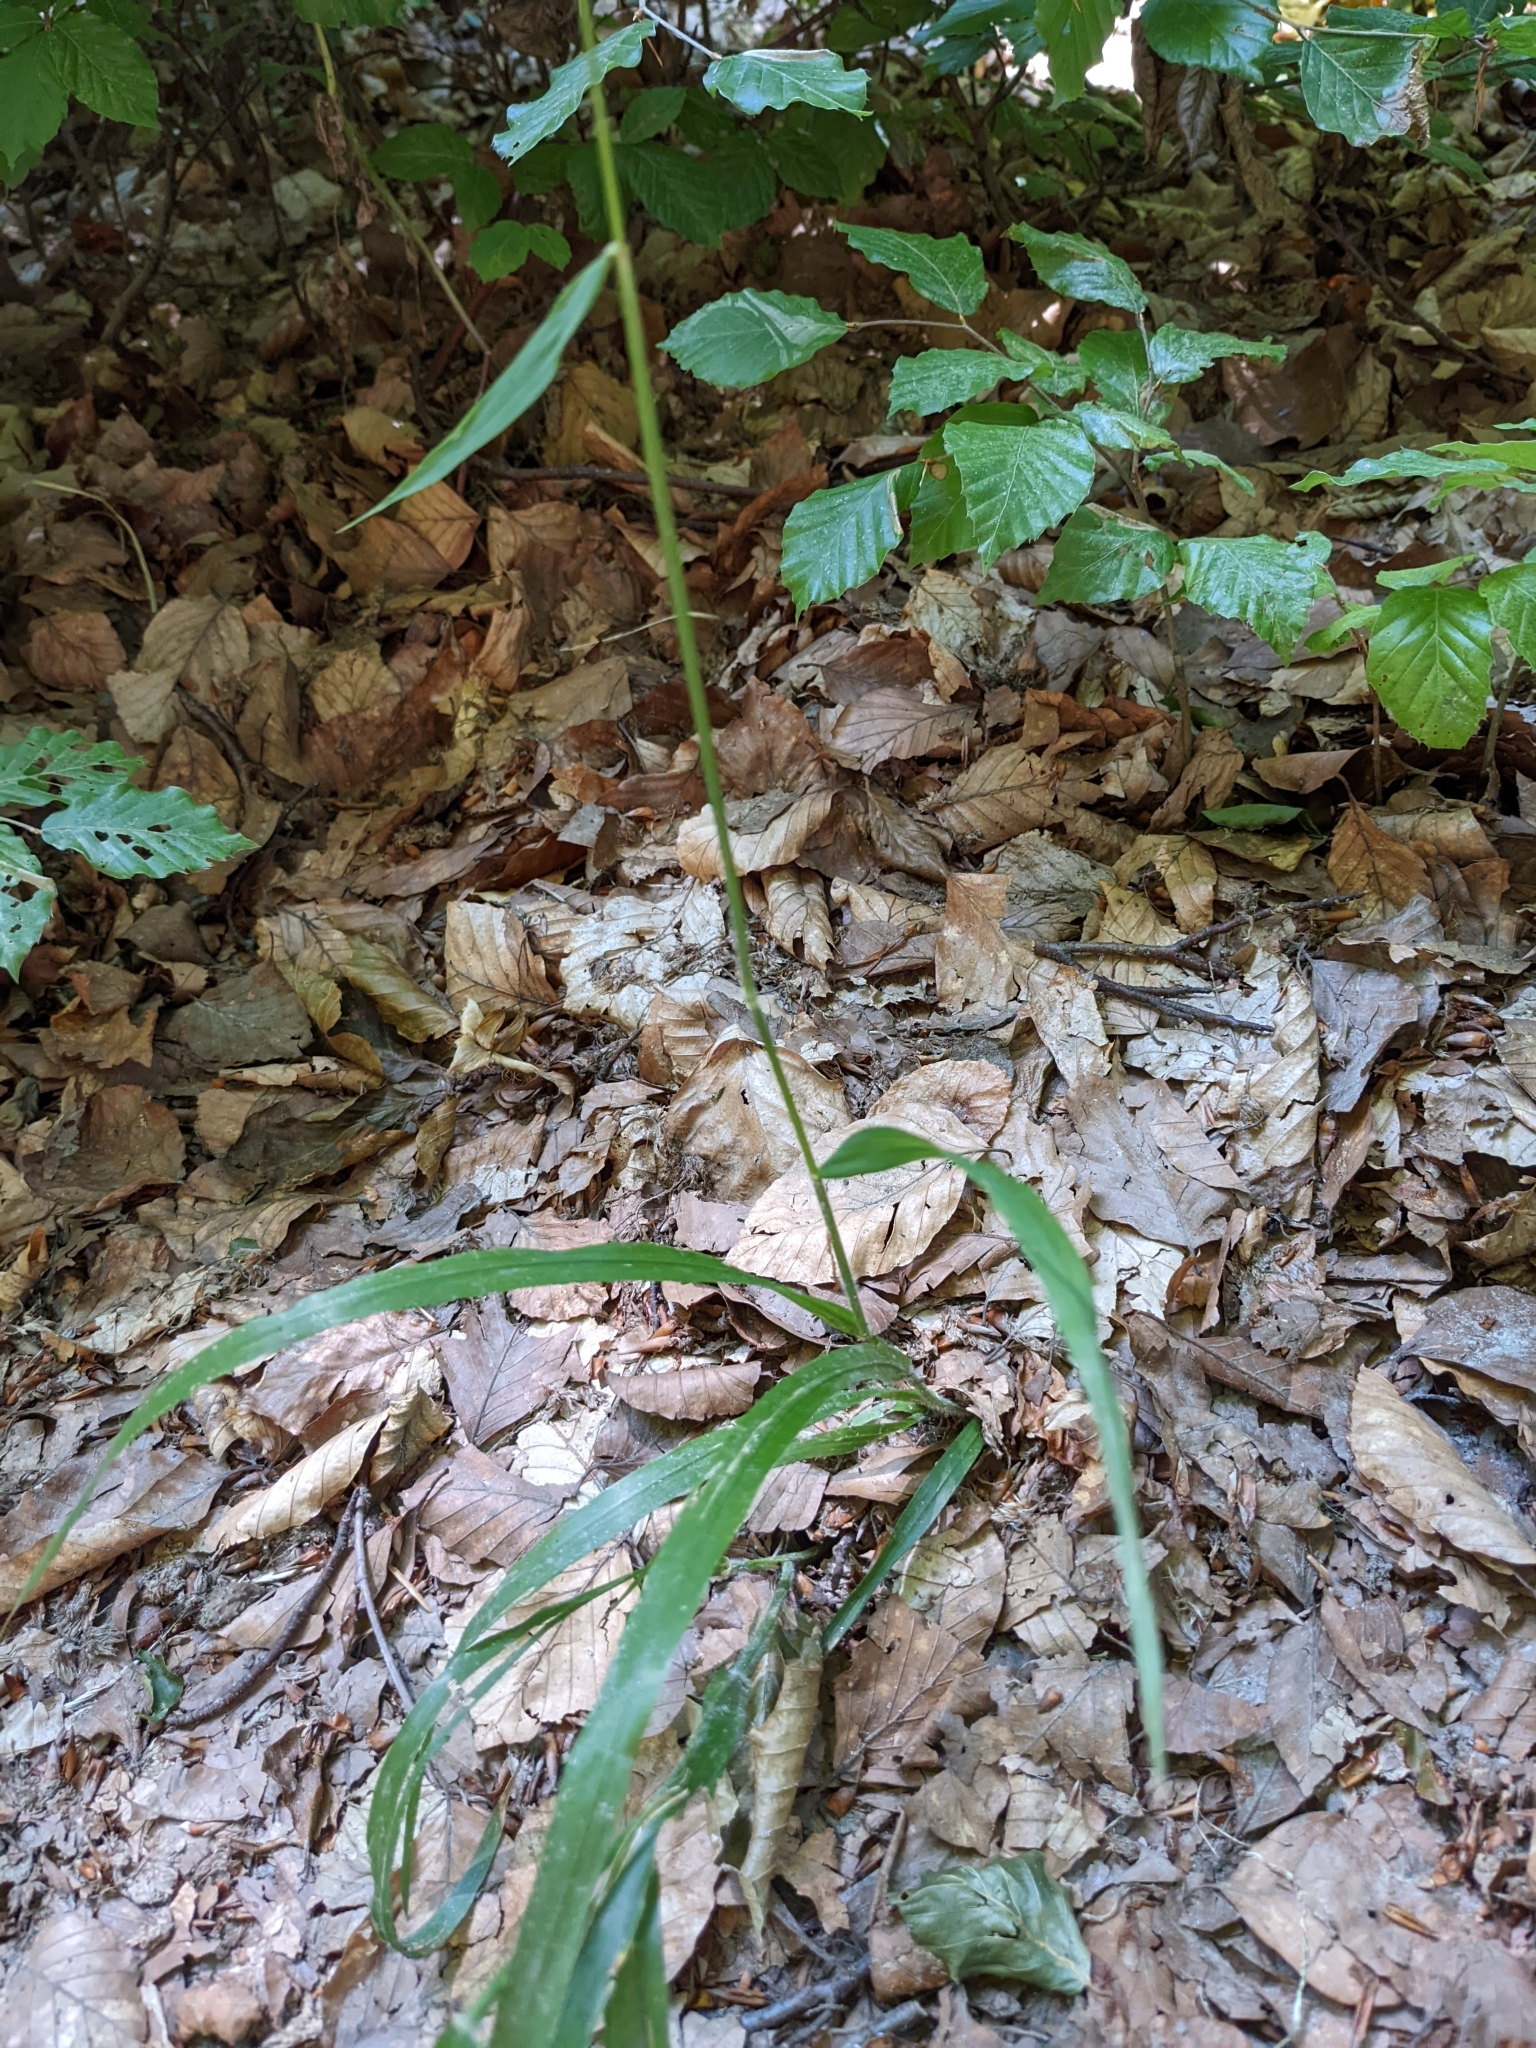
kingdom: Plantae
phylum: Tracheophyta
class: Liliopsida
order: Poales
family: Poaceae
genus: Hordelymus
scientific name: Hordelymus europaeus
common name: Wood-barley
